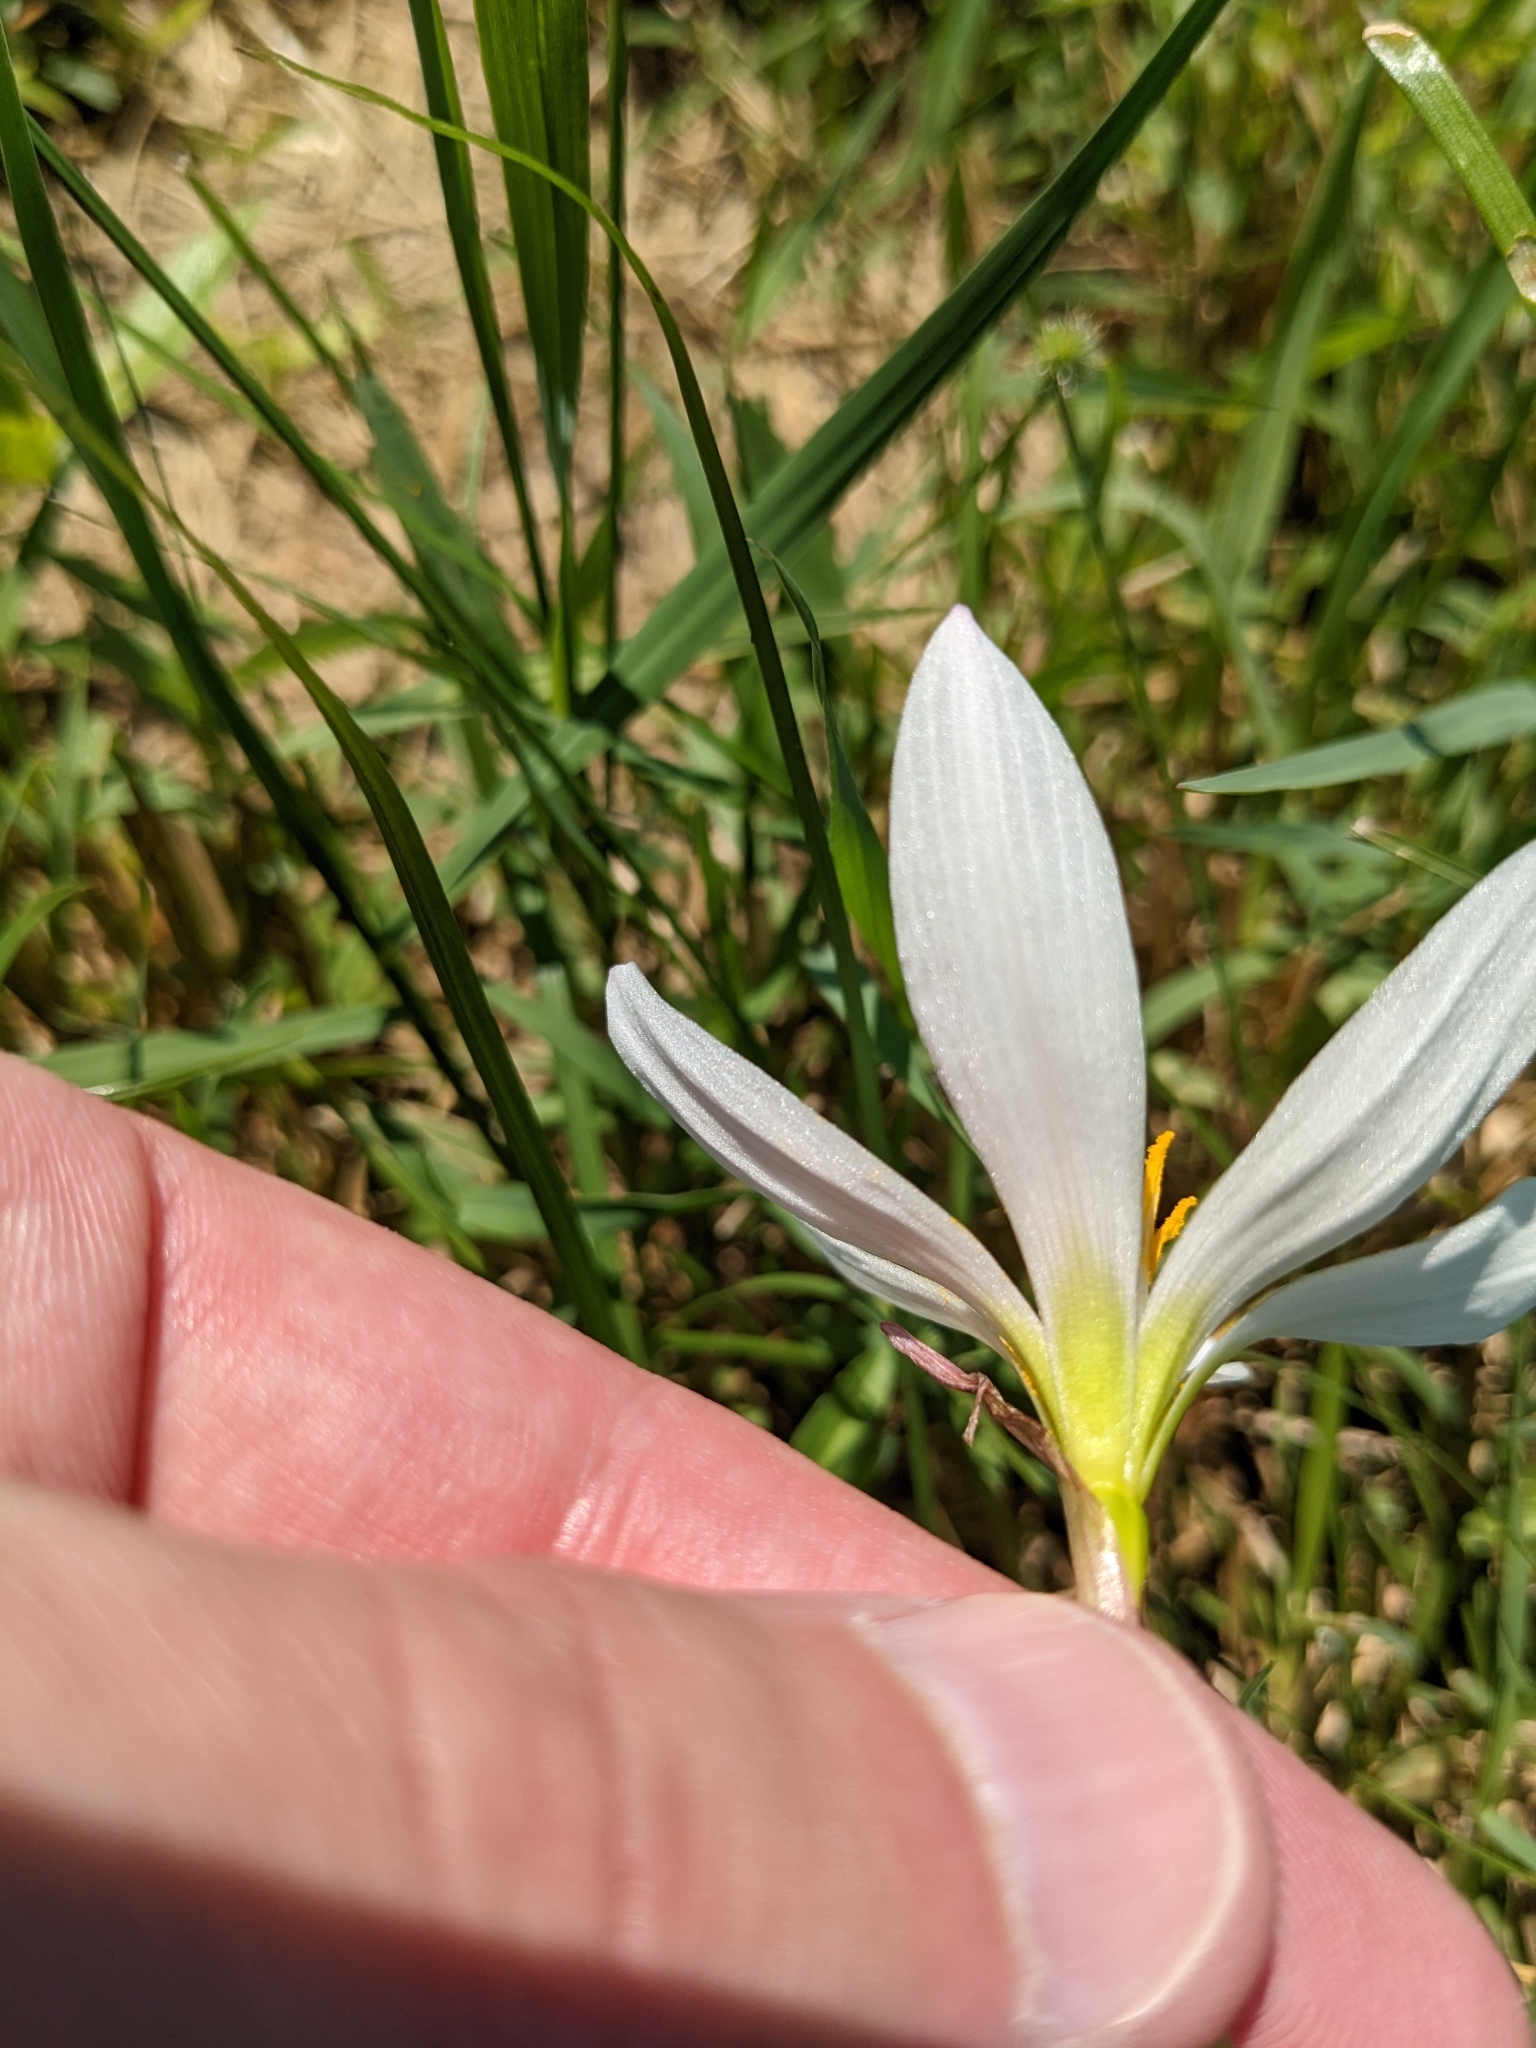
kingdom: Plantae
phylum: Tracheophyta
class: Liliopsida
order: Asparagales
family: Amaryllidaceae
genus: Zephyranthes
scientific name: Zephyranthes candida
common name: Autumn zephyrlily
